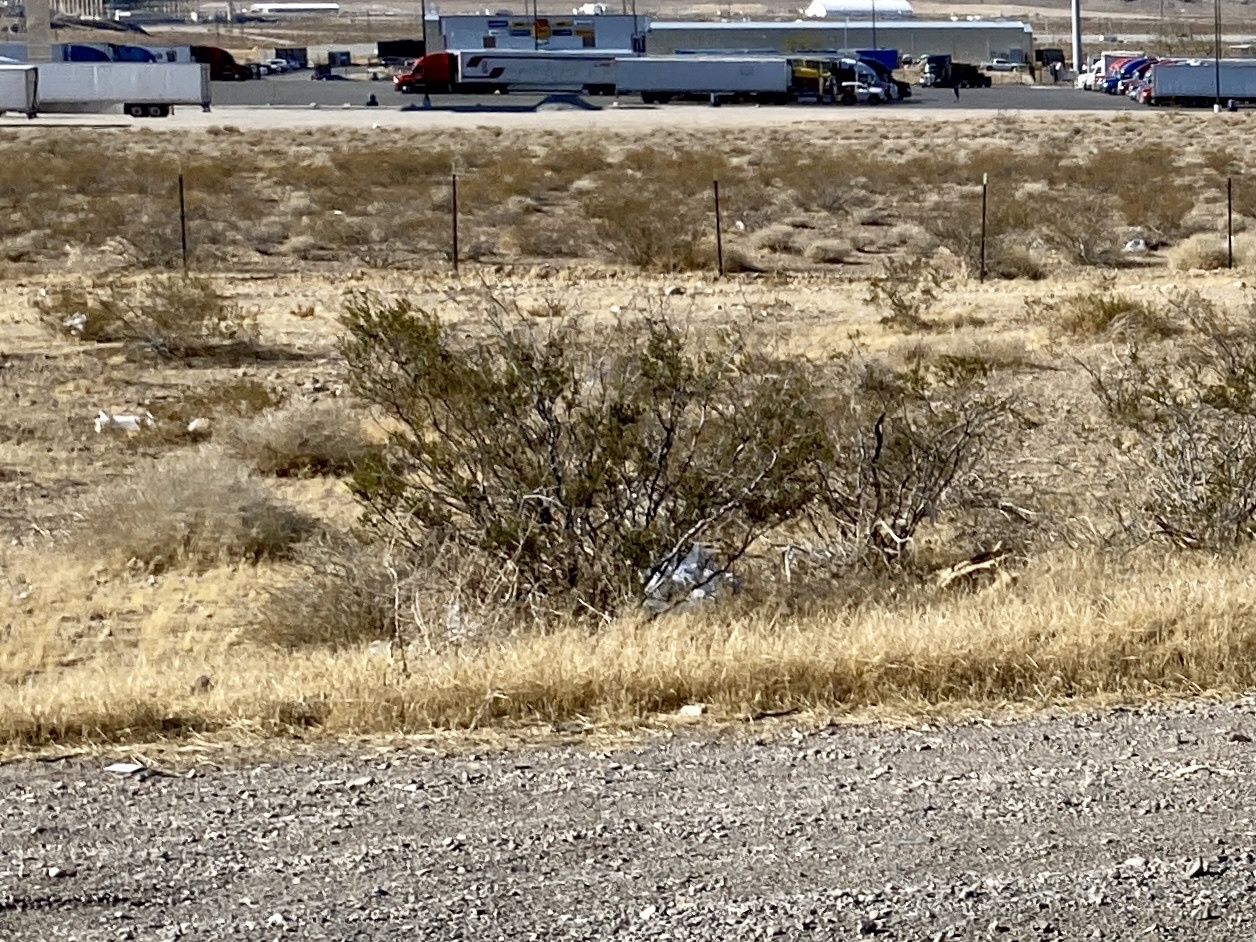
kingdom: Plantae
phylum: Tracheophyta
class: Magnoliopsida
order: Zygophyllales
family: Zygophyllaceae
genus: Larrea
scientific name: Larrea tridentata
